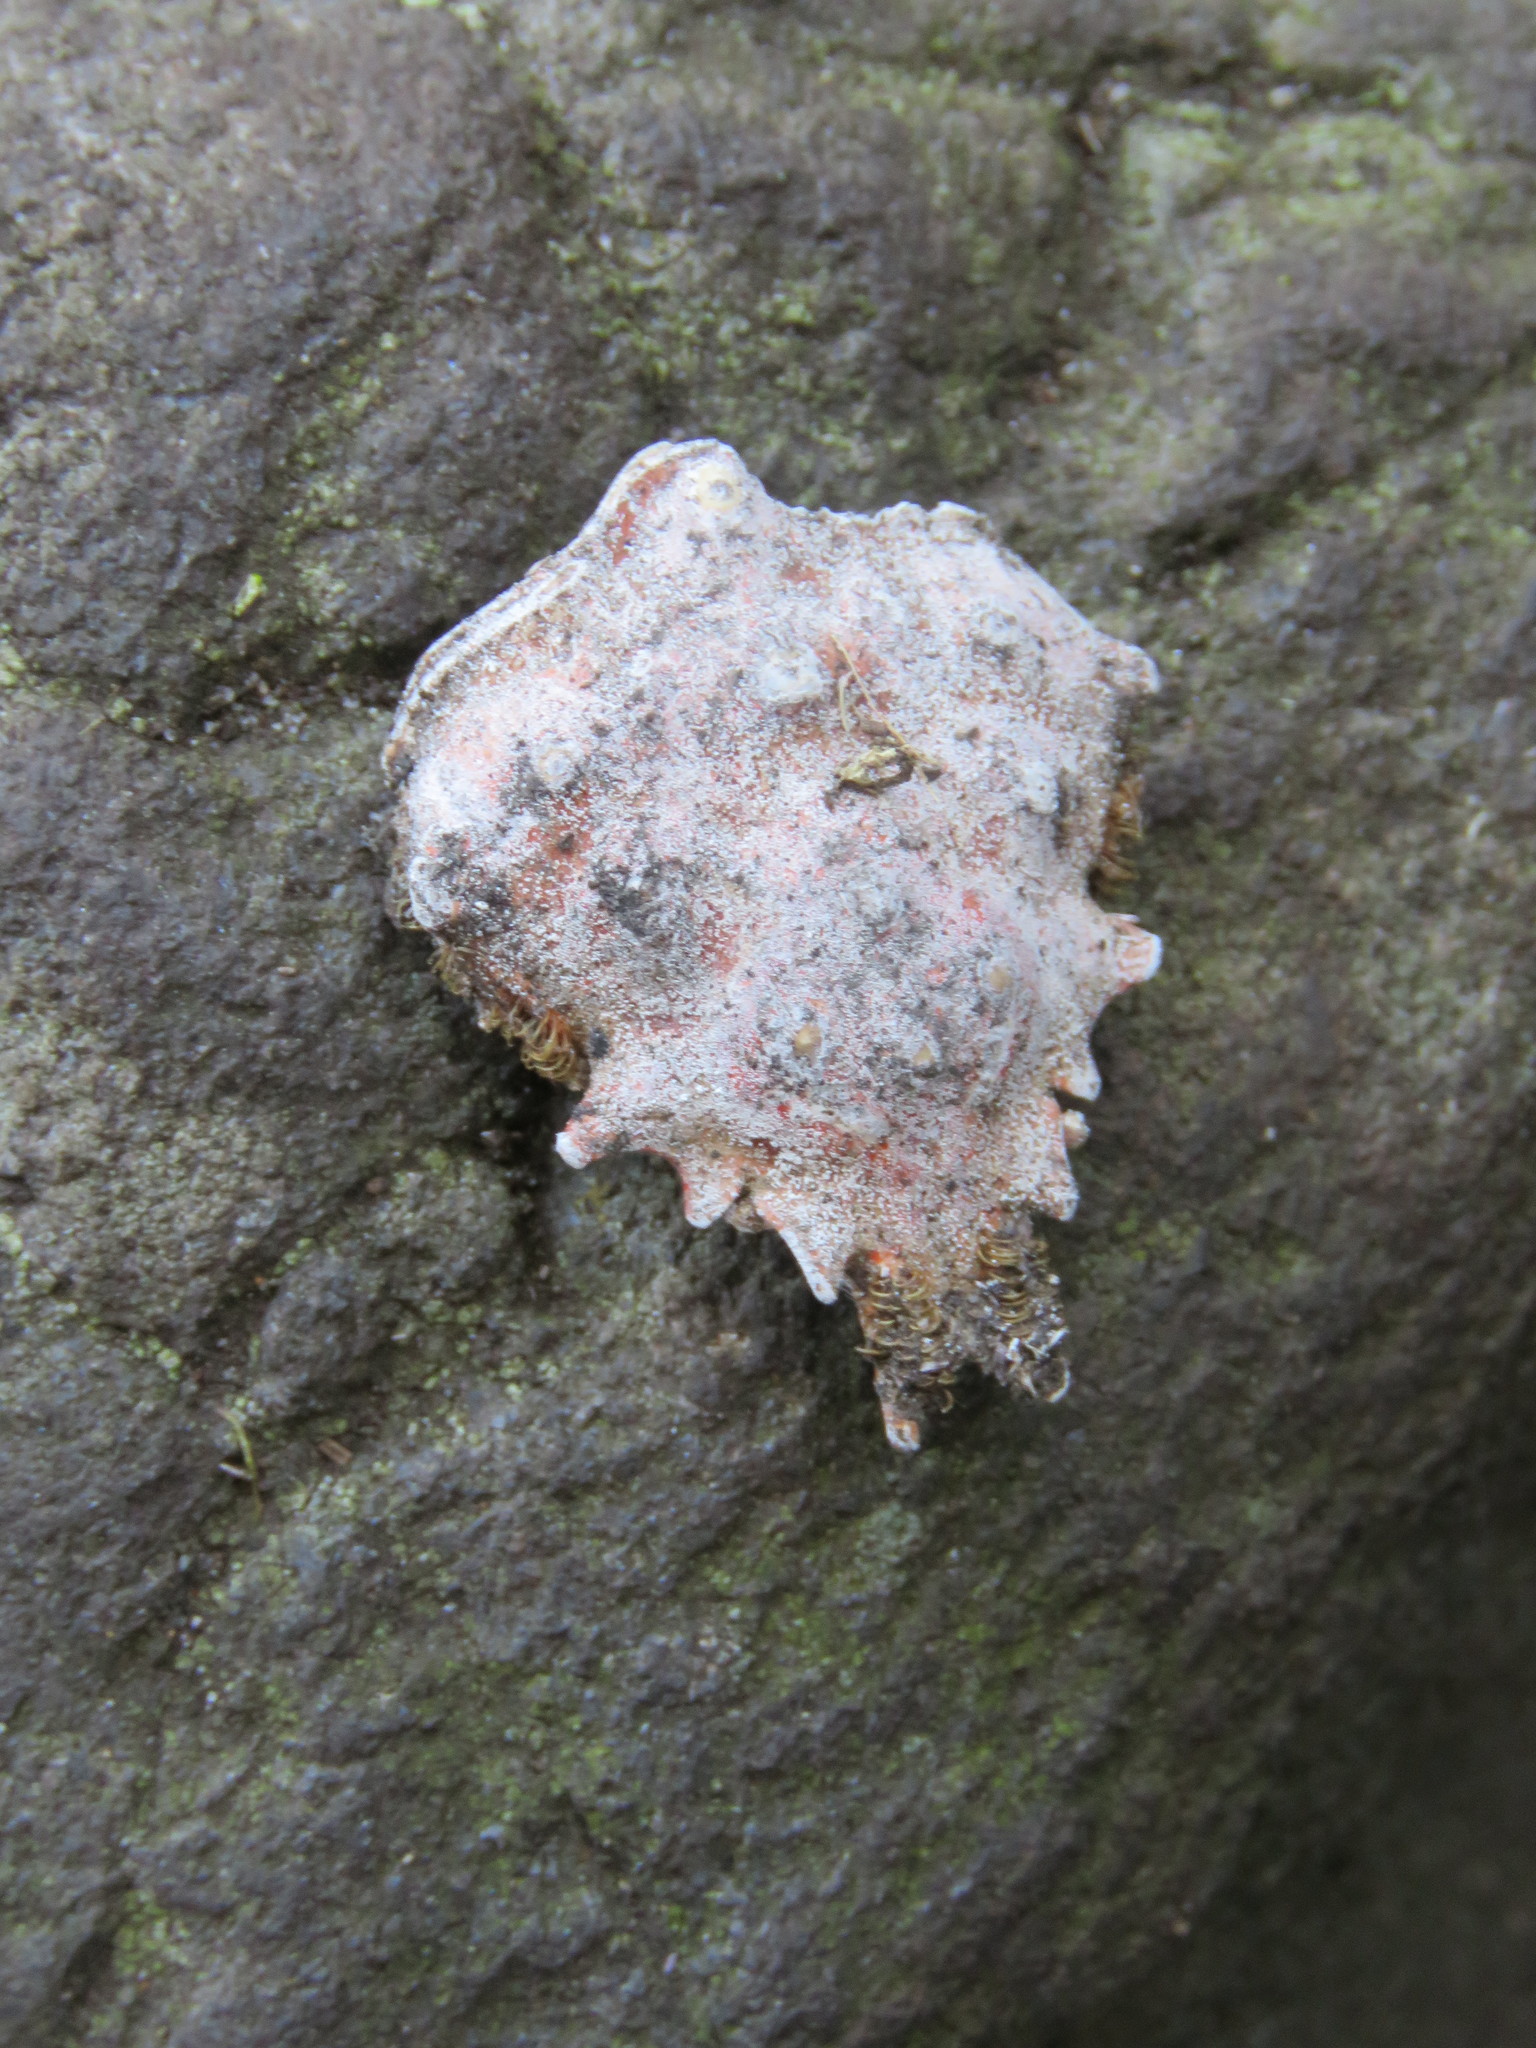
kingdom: Animalia
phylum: Arthropoda
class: Malacostraca
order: Decapoda
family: Epialtidae
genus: Pugettia
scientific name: Pugettia richii
